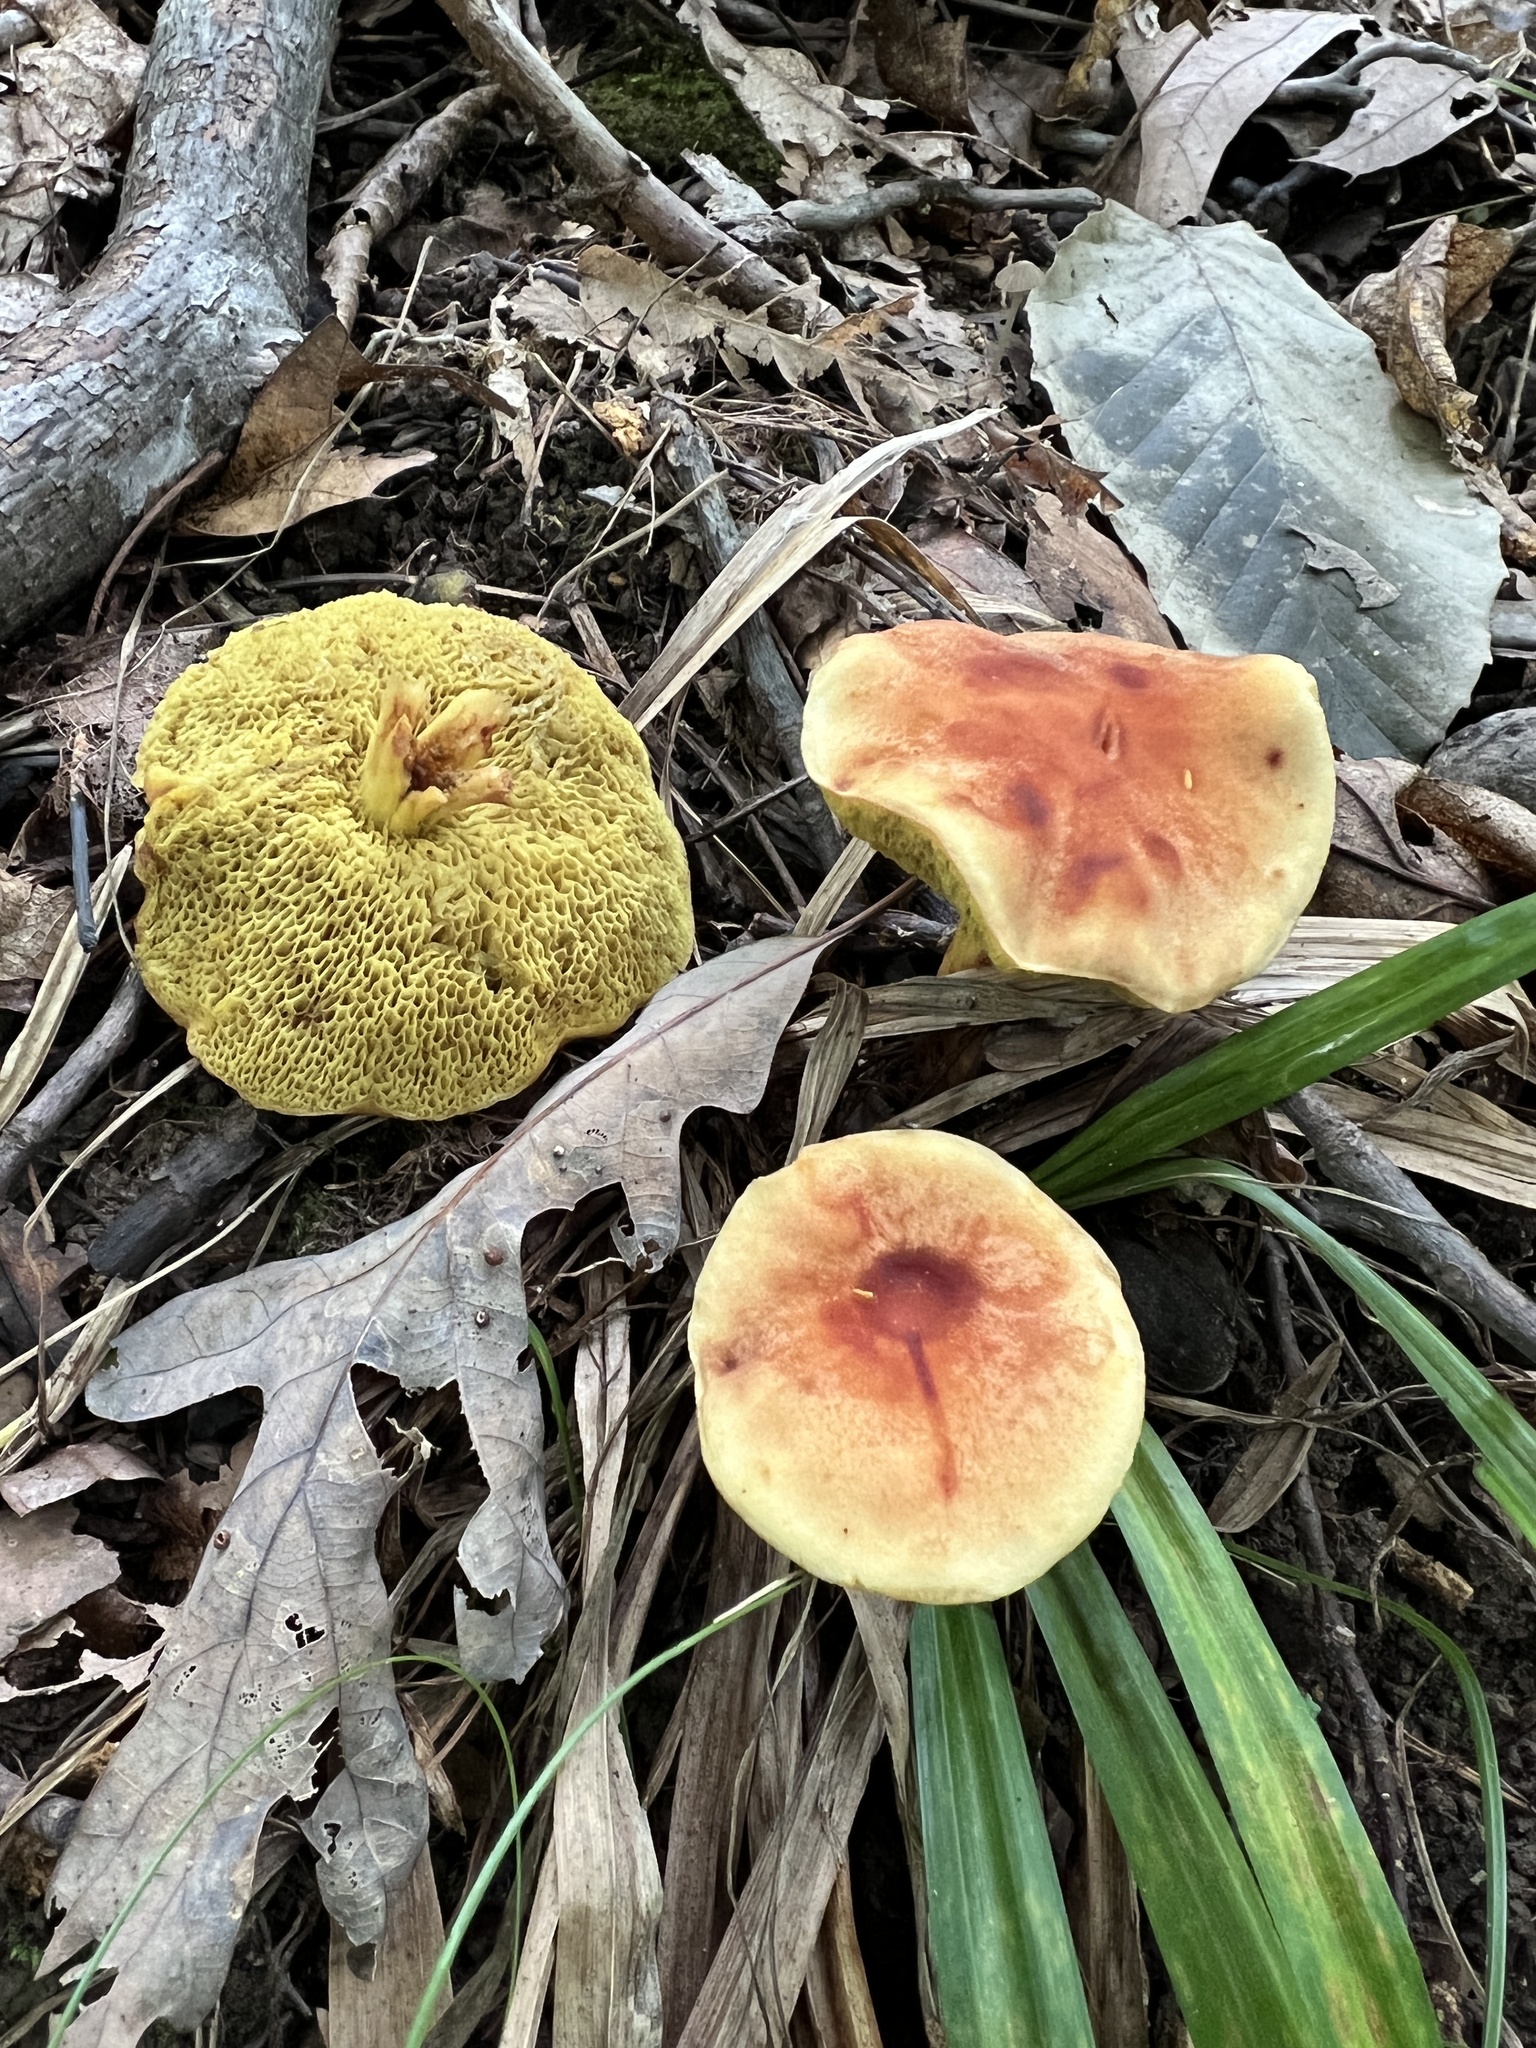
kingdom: Fungi
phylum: Basidiomycota
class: Agaricomycetes
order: Boletales
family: Boletaceae
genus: Xerocomus
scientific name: Xerocomus illudens
